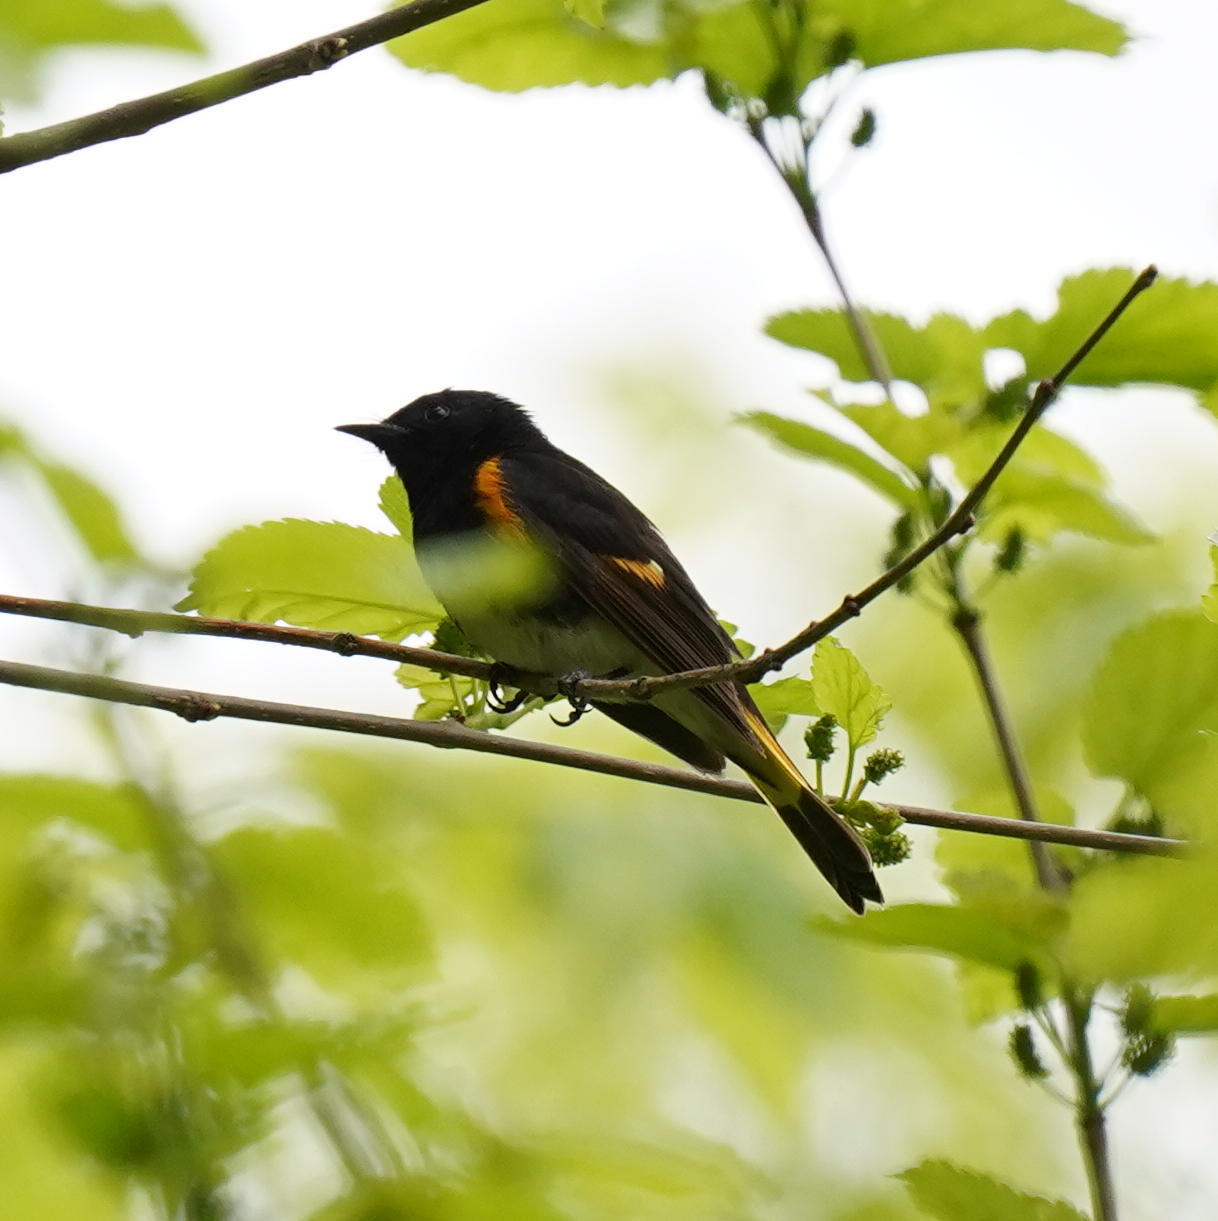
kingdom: Animalia
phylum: Chordata
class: Aves
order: Passeriformes
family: Parulidae
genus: Setophaga
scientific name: Setophaga ruticilla
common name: American redstart
